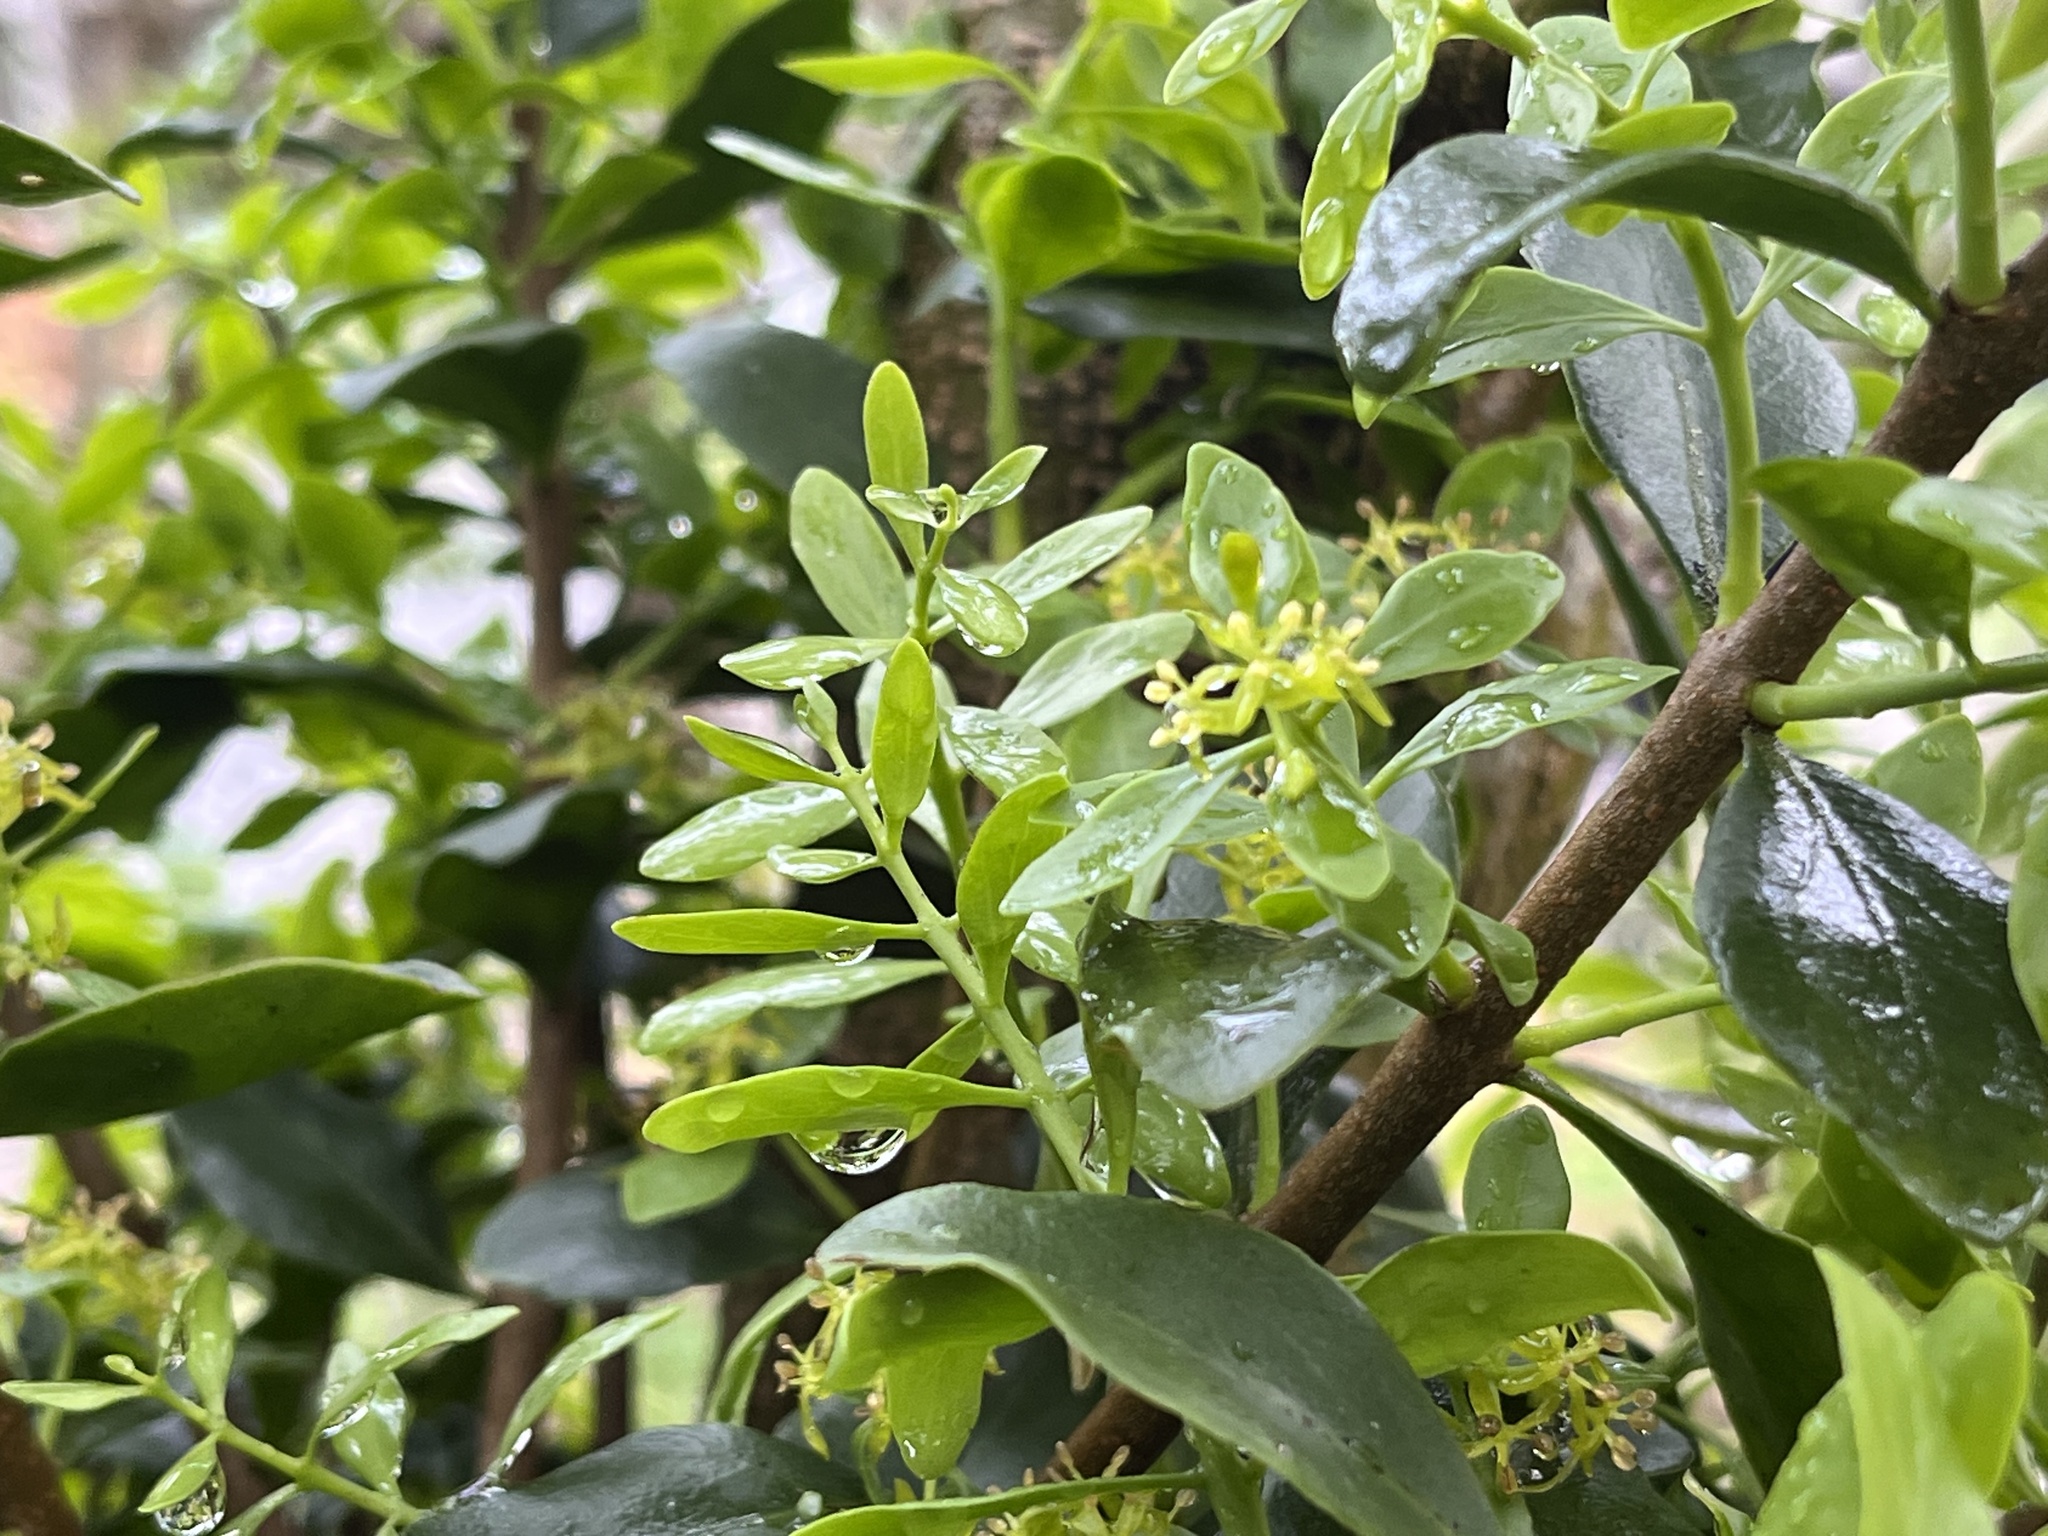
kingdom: Plantae
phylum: Tracheophyta
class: Magnoliopsida
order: Santalales
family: Loranthaceae
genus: Tupeia
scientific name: Tupeia antarctica
